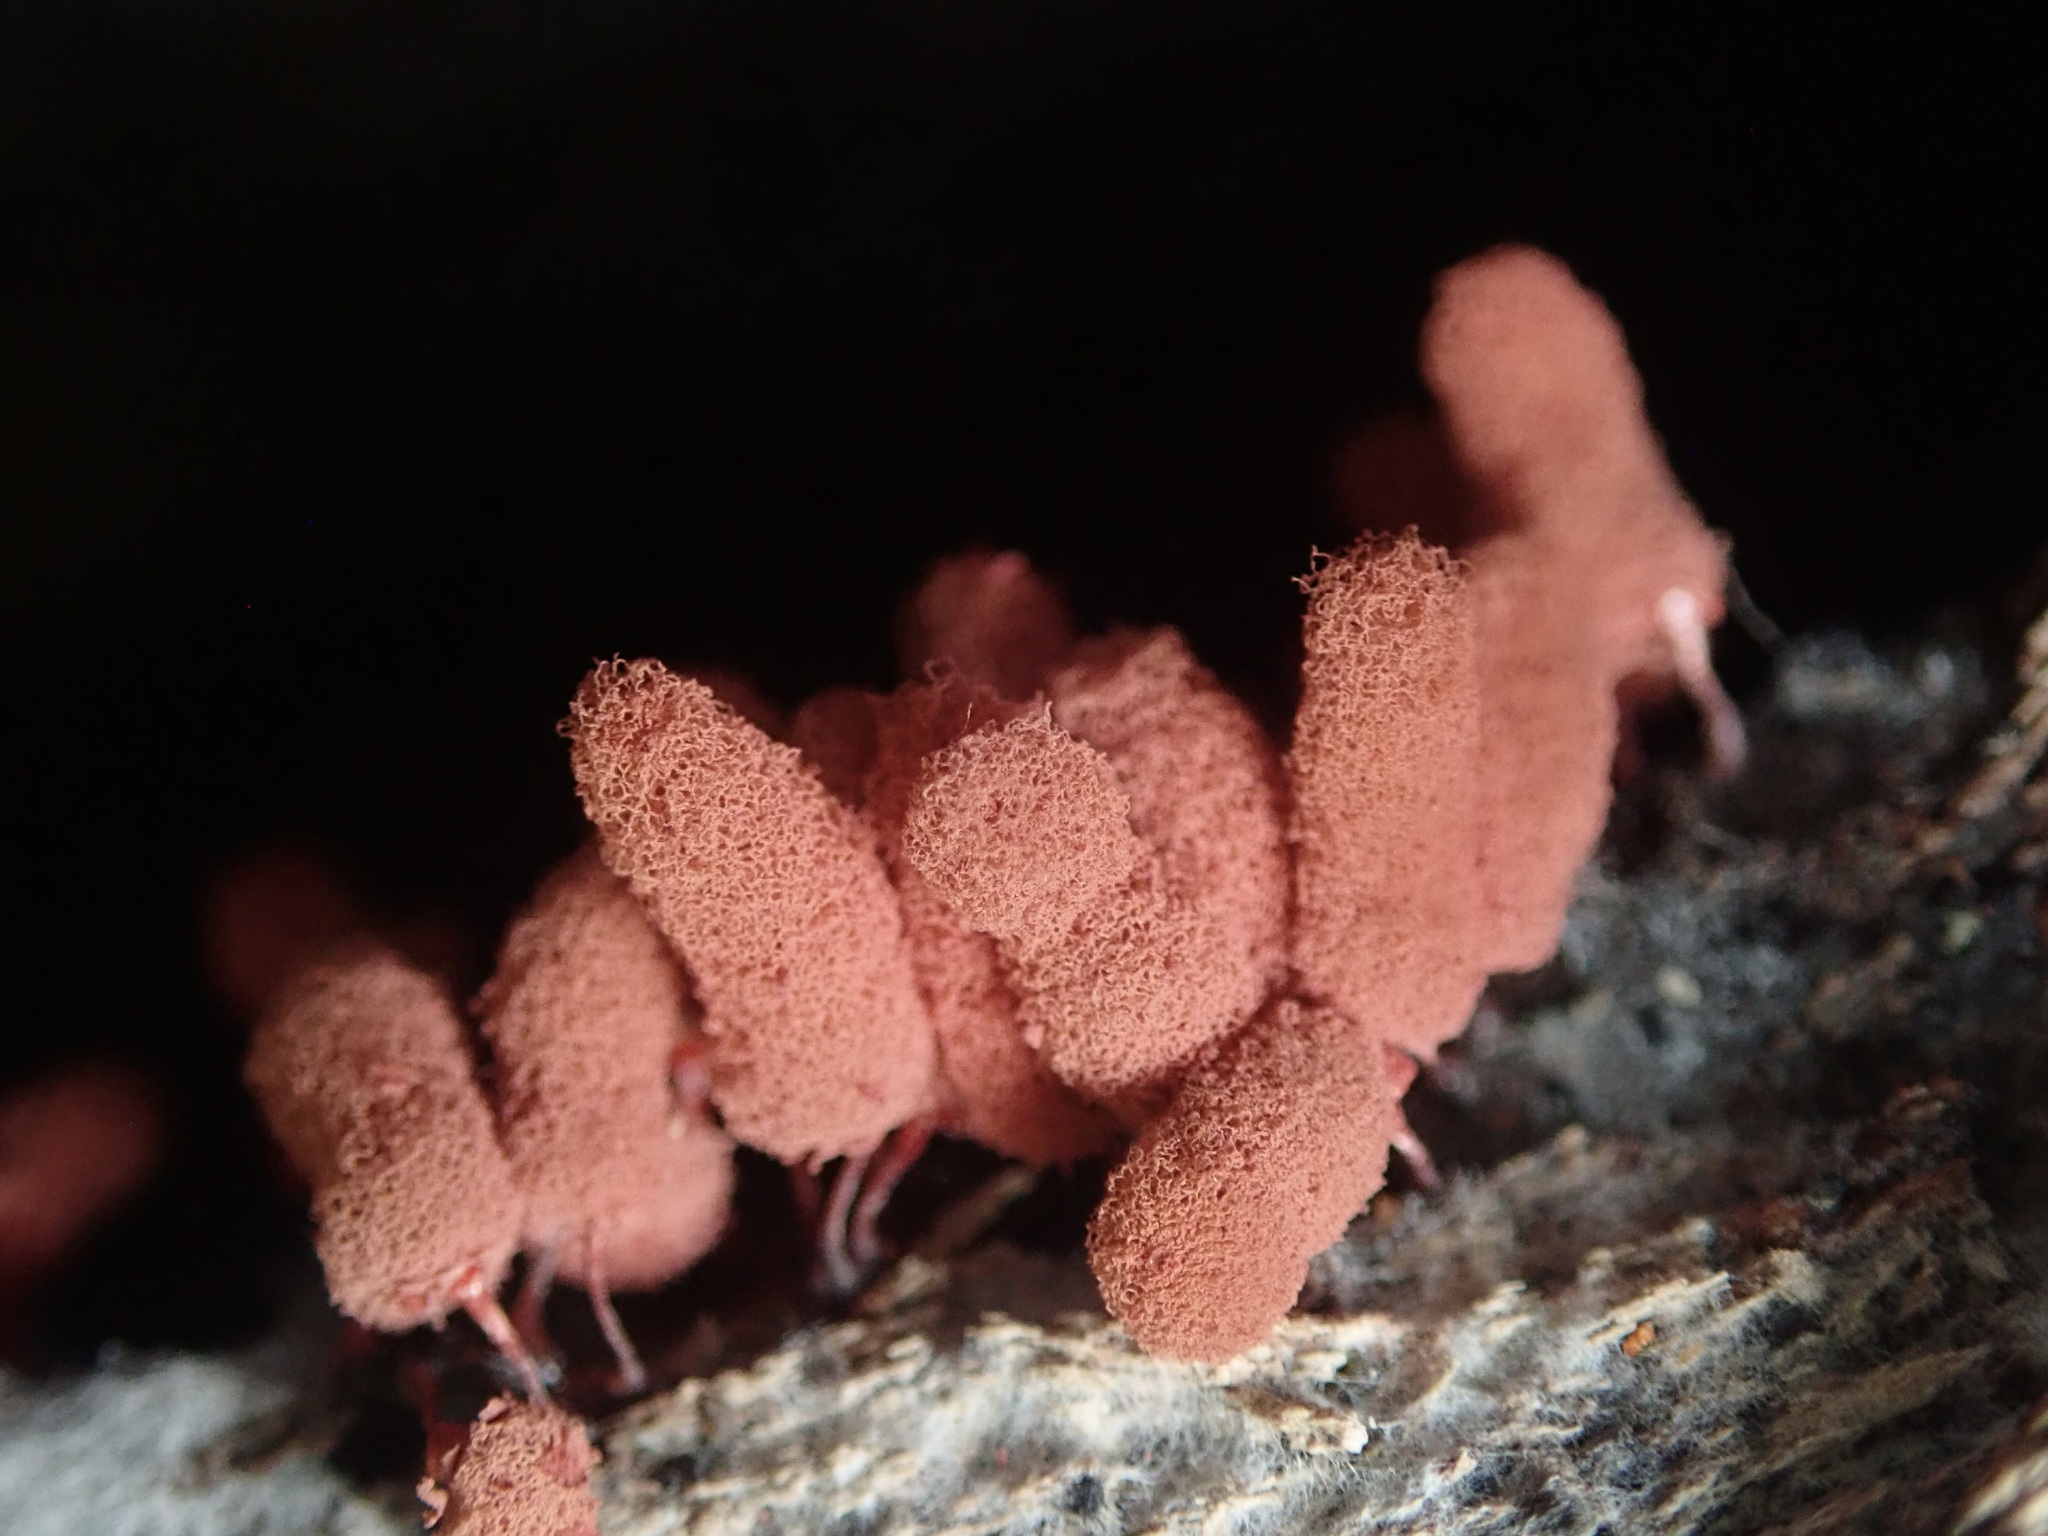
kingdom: Protozoa
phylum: Mycetozoa
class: Myxomycetes
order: Trichiales
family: Arcyriaceae
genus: Arcyria
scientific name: Arcyria denudata
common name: Carnival candy slime mold
